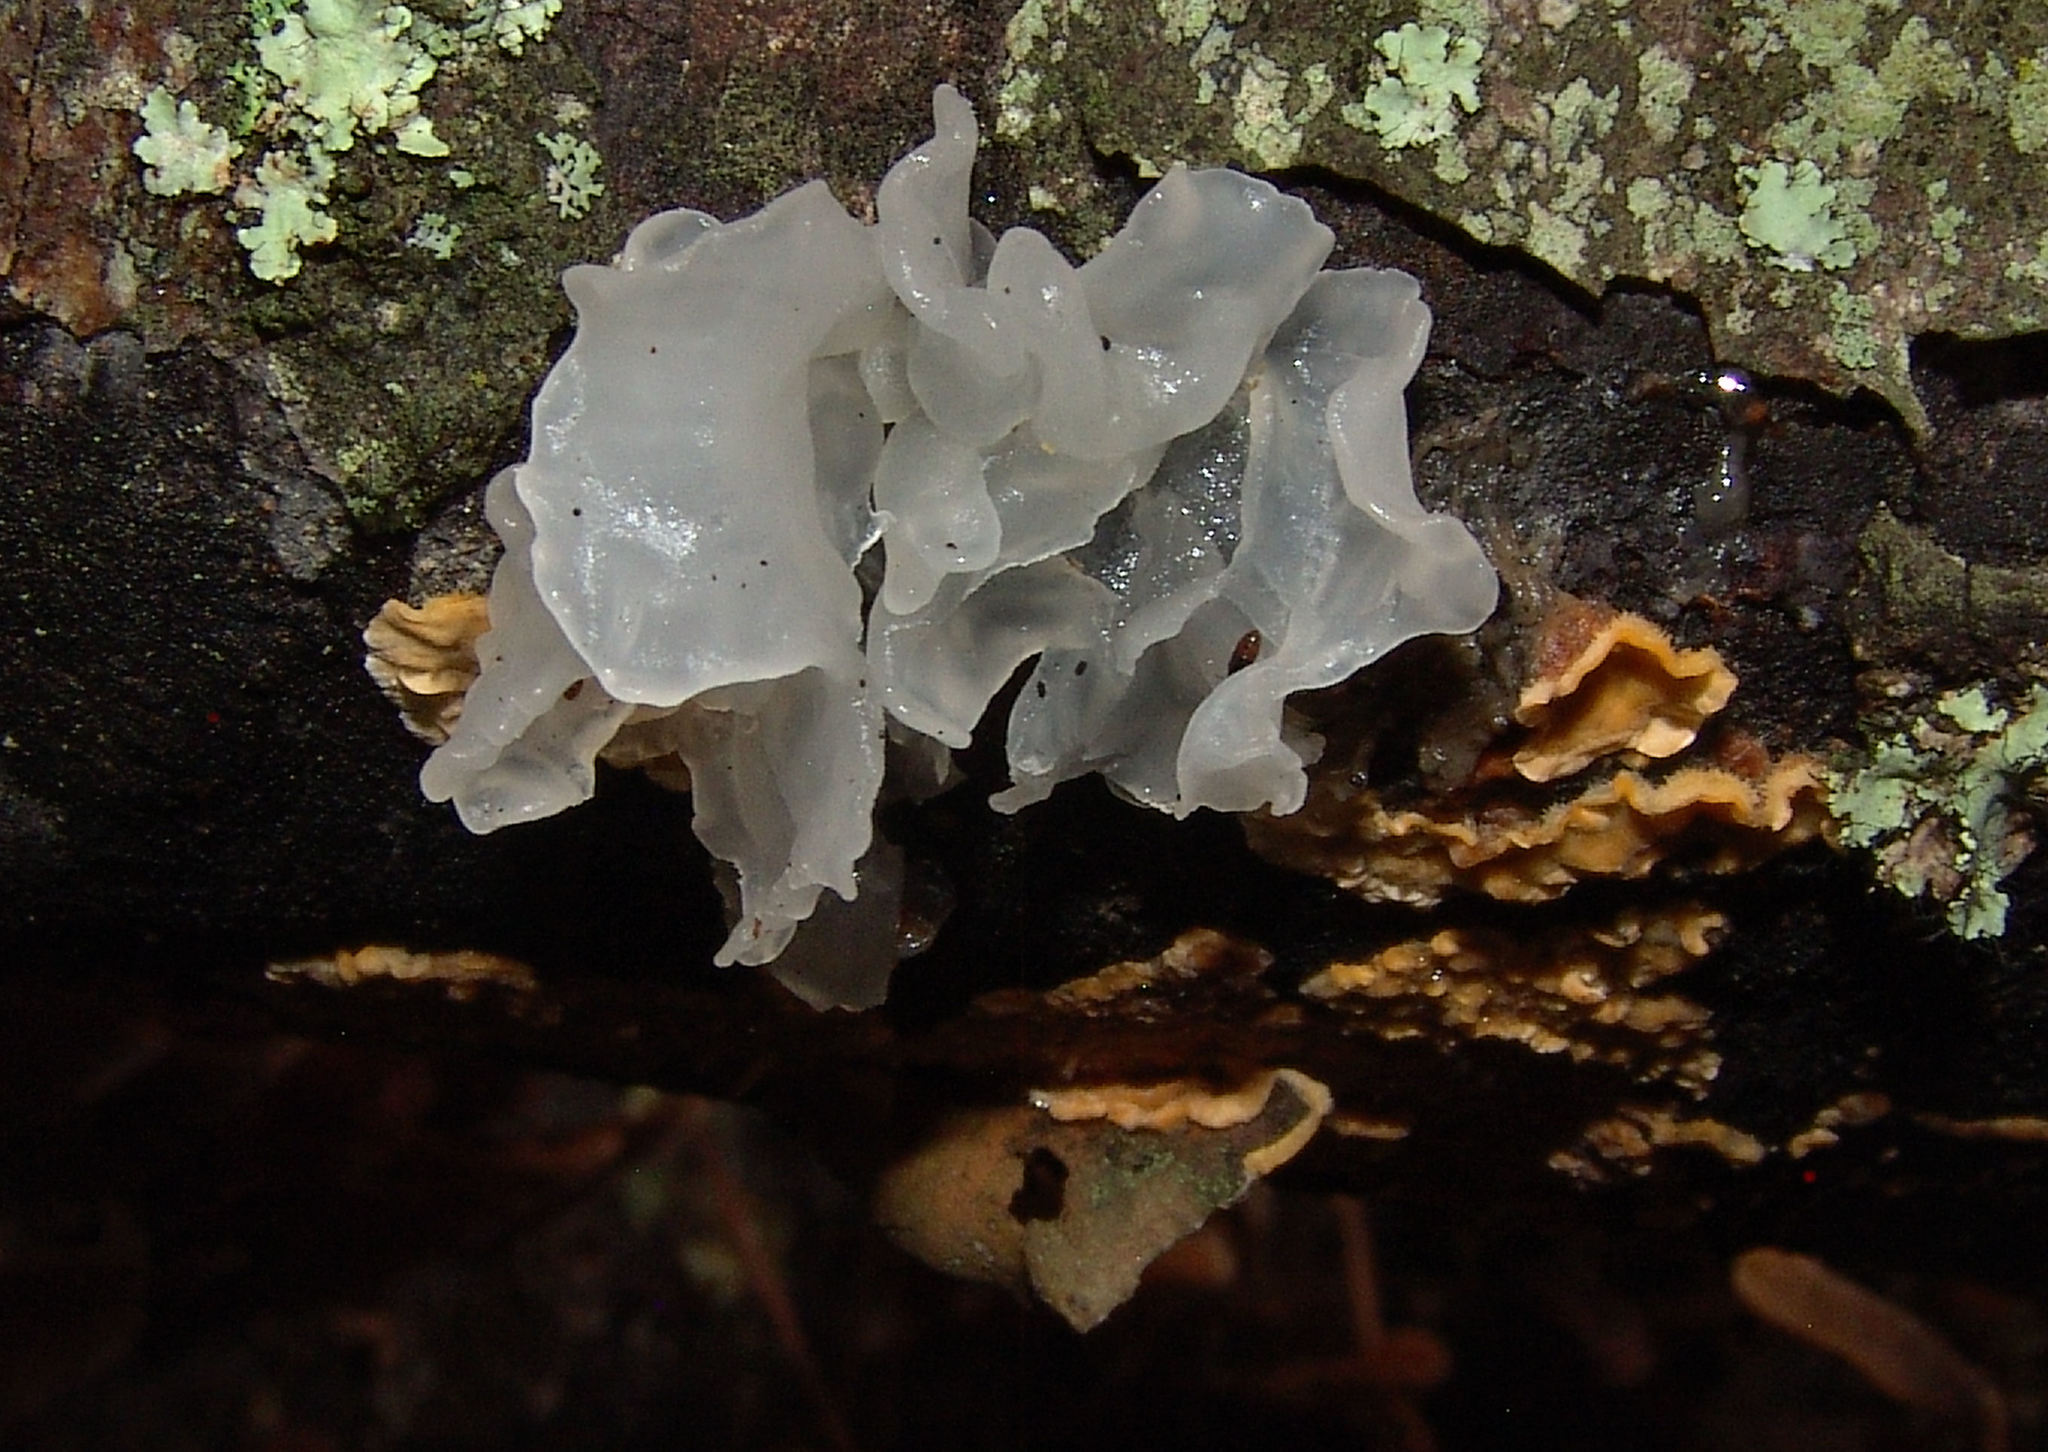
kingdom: Fungi
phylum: Basidiomycota
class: Tremellomycetes
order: Tremellales
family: Tremellaceae
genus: Tremella
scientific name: Tremella fuciformis
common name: Snow fungus
